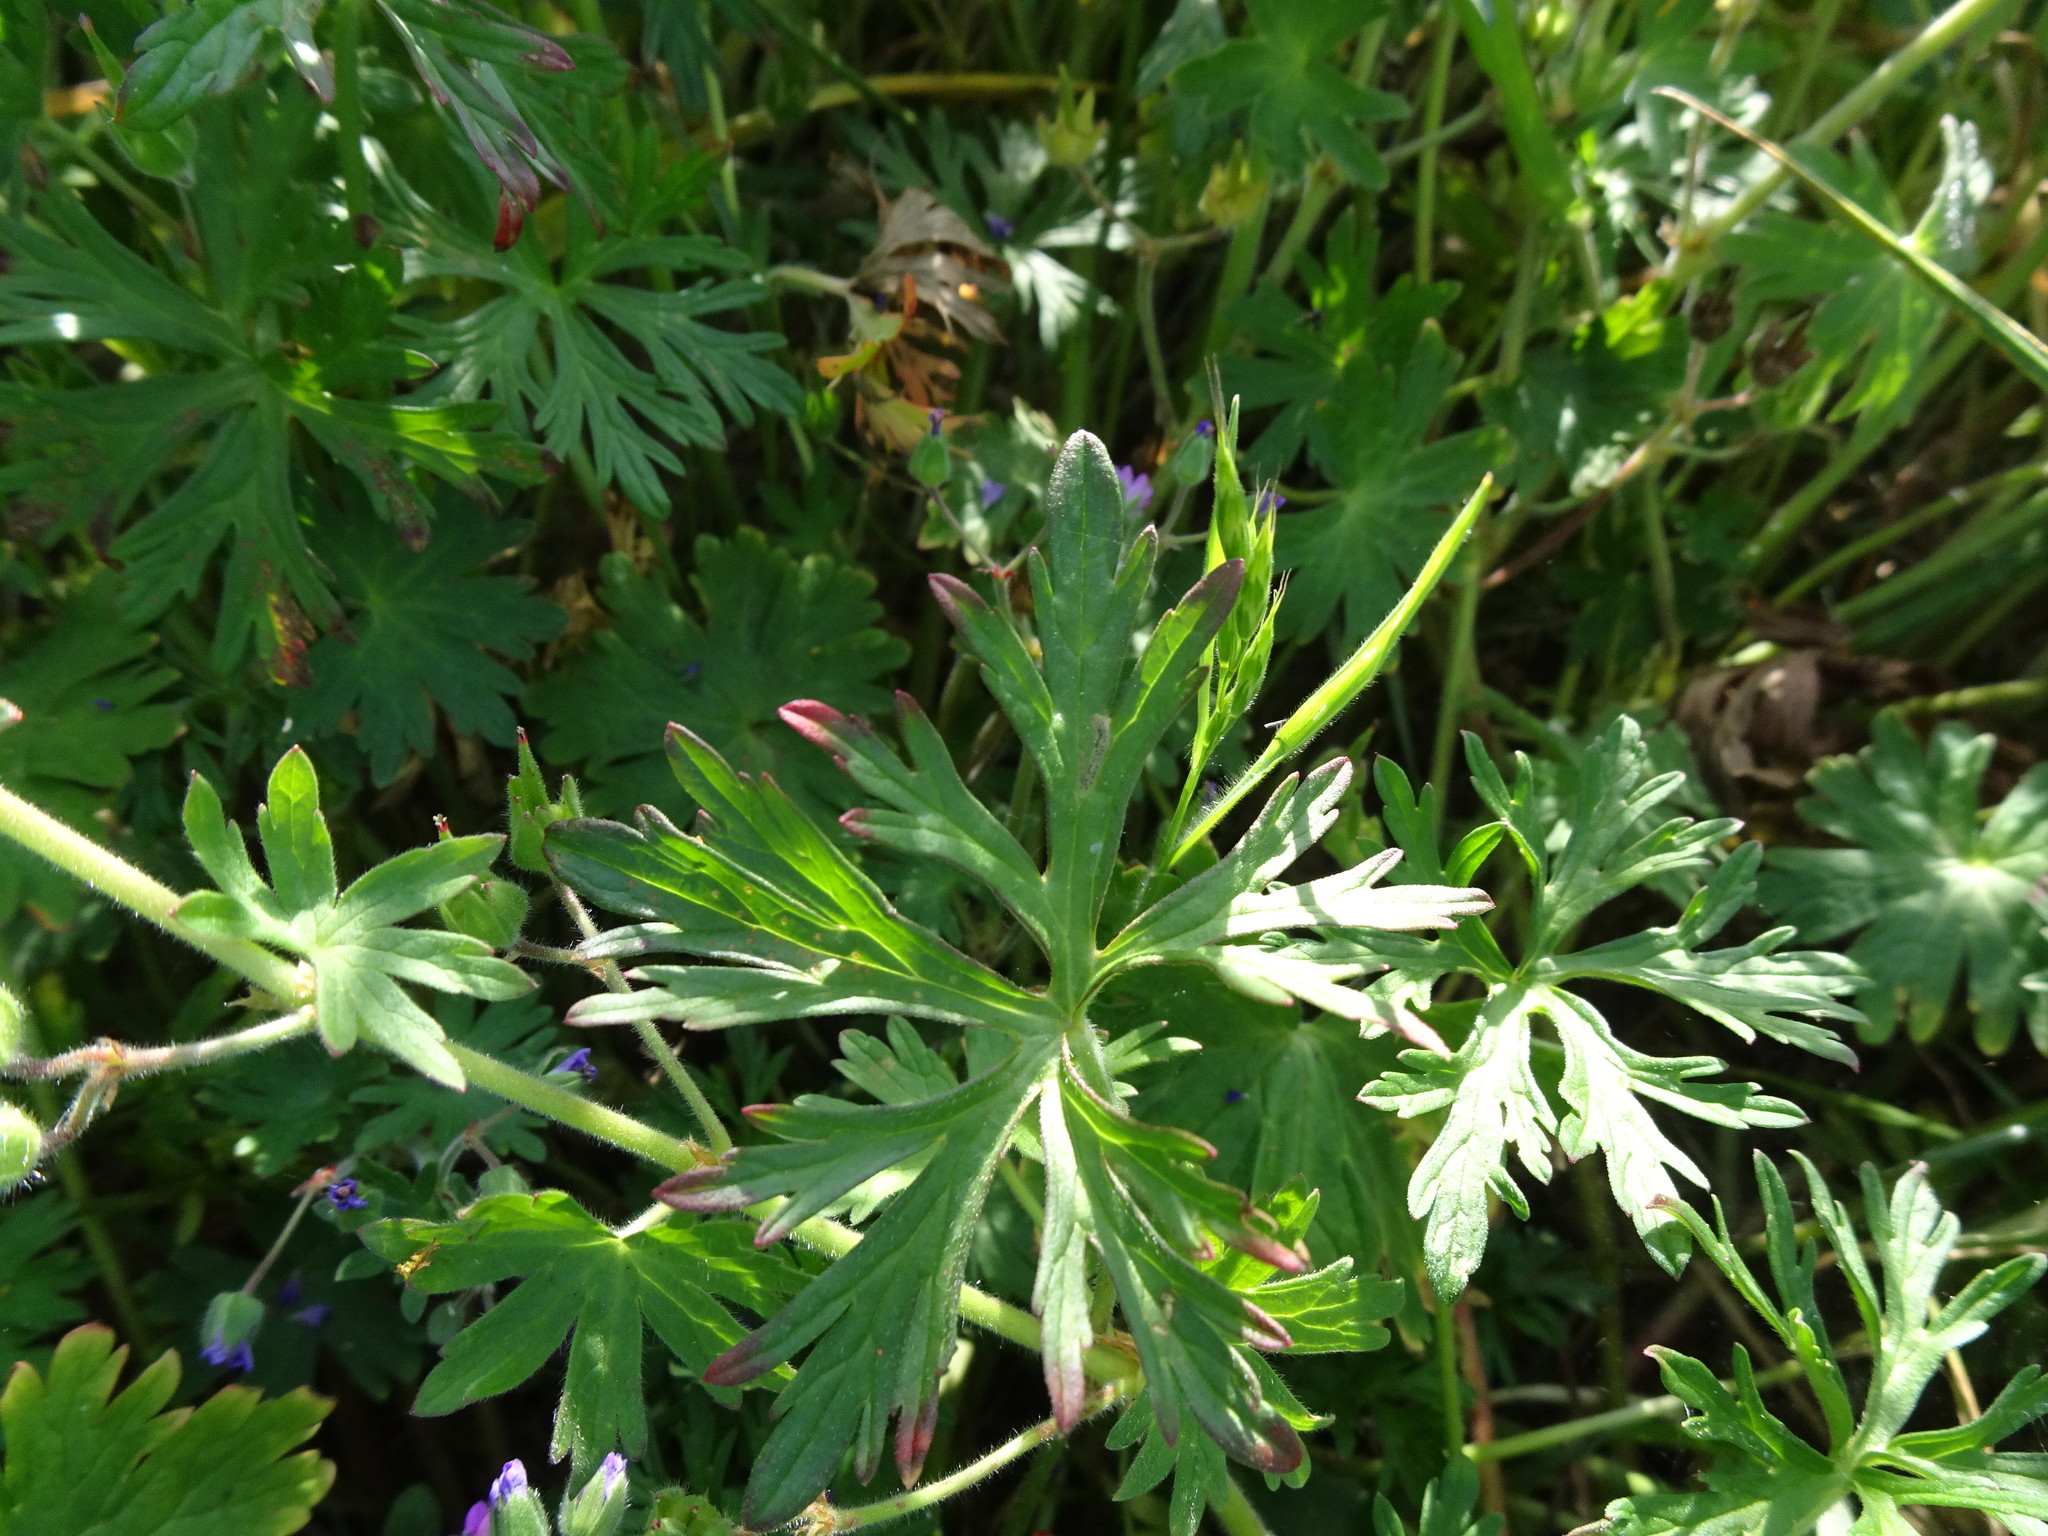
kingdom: Plantae
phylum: Tracheophyta
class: Magnoliopsida
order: Geraniales
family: Geraniaceae
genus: Geranium
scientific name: Geranium dissectum
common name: Cut-leaved crane's-bill
